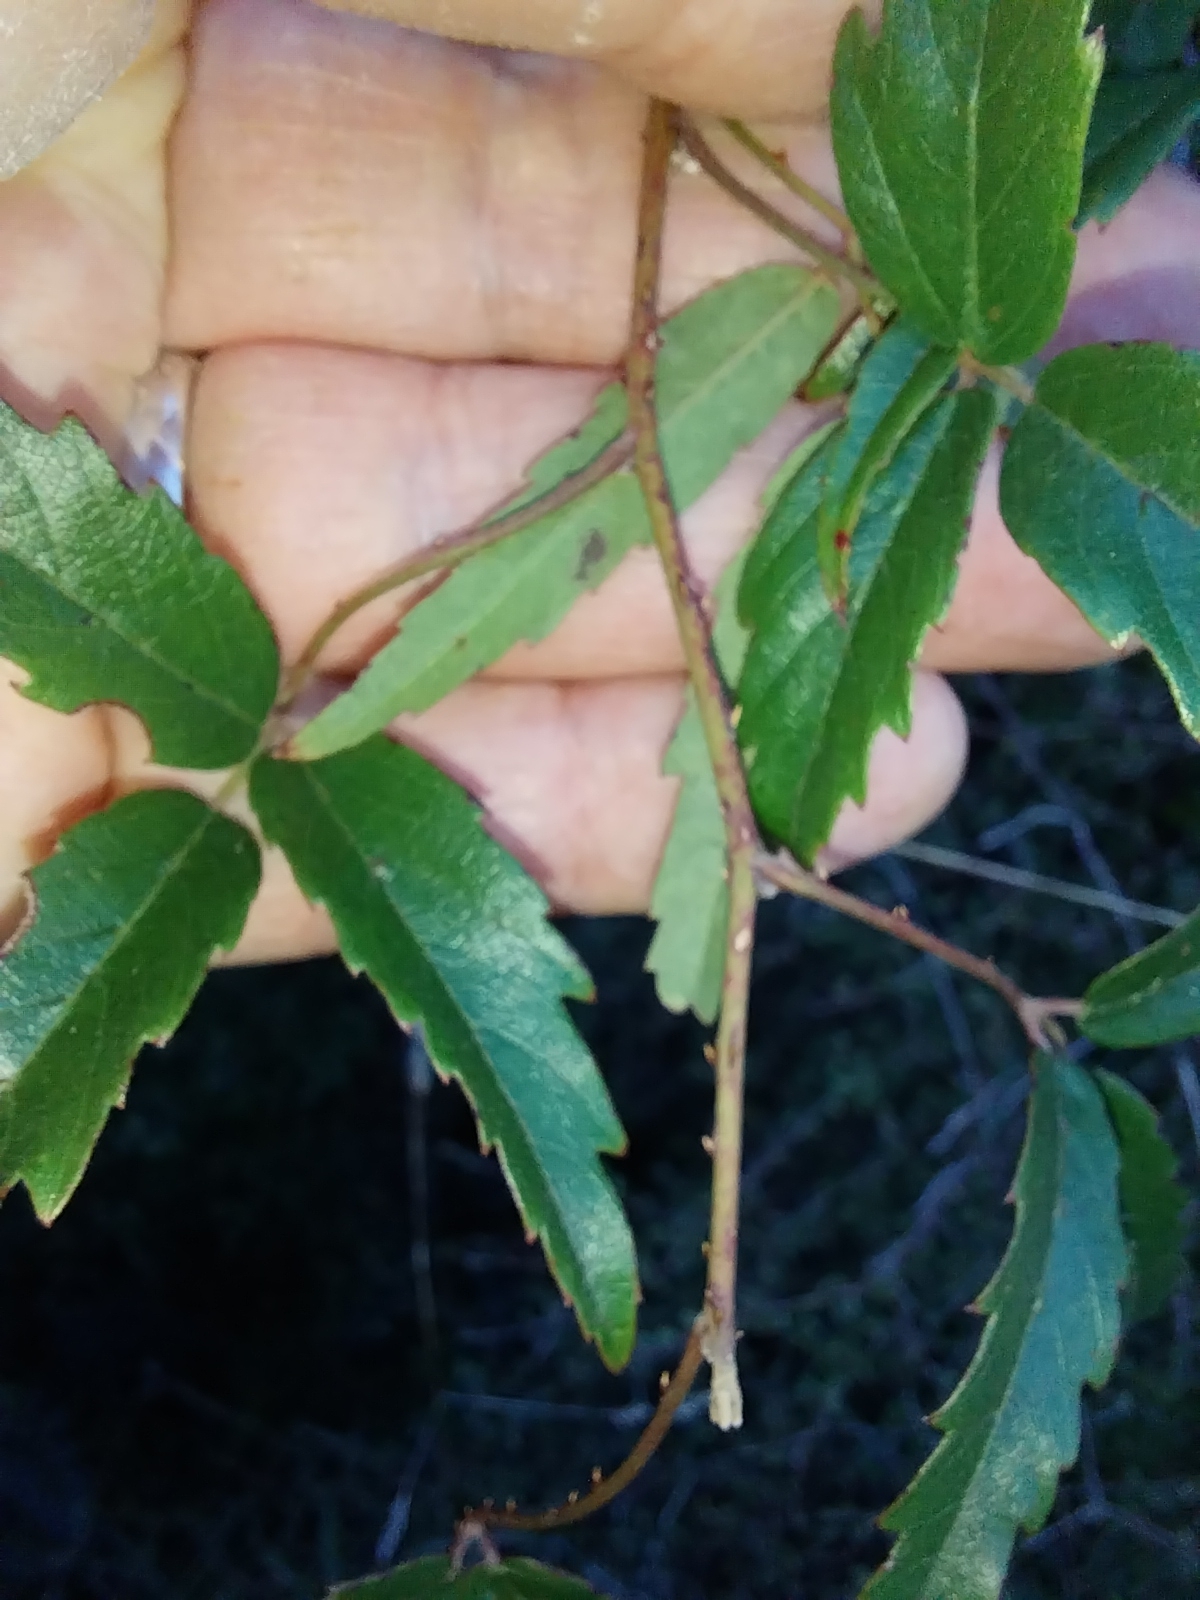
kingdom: Plantae
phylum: Tracheophyta
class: Magnoliopsida
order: Rosales
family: Rosaceae
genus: Rubus
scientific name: Rubus schmidelioides
